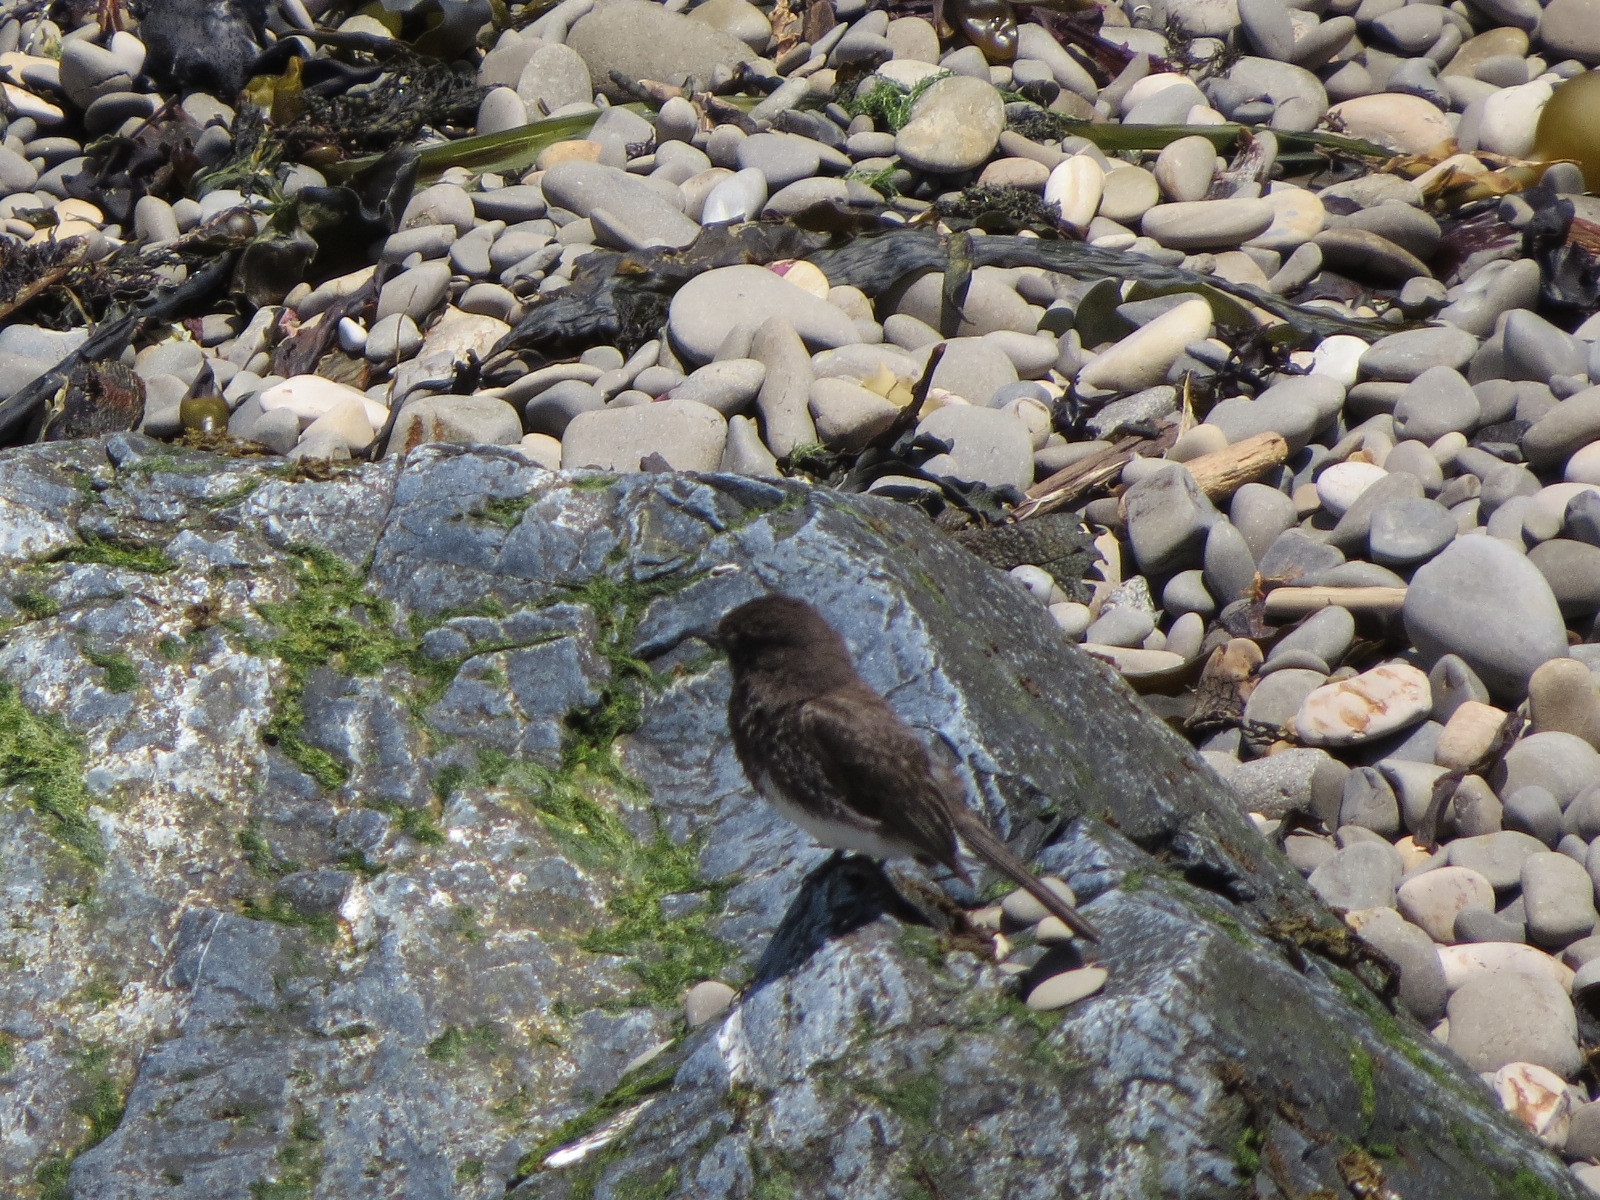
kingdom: Animalia
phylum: Chordata
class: Aves
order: Passeriformes
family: Tyrannidae
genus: Sayornis
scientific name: Sayornis nigricans
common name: Black phoebe
